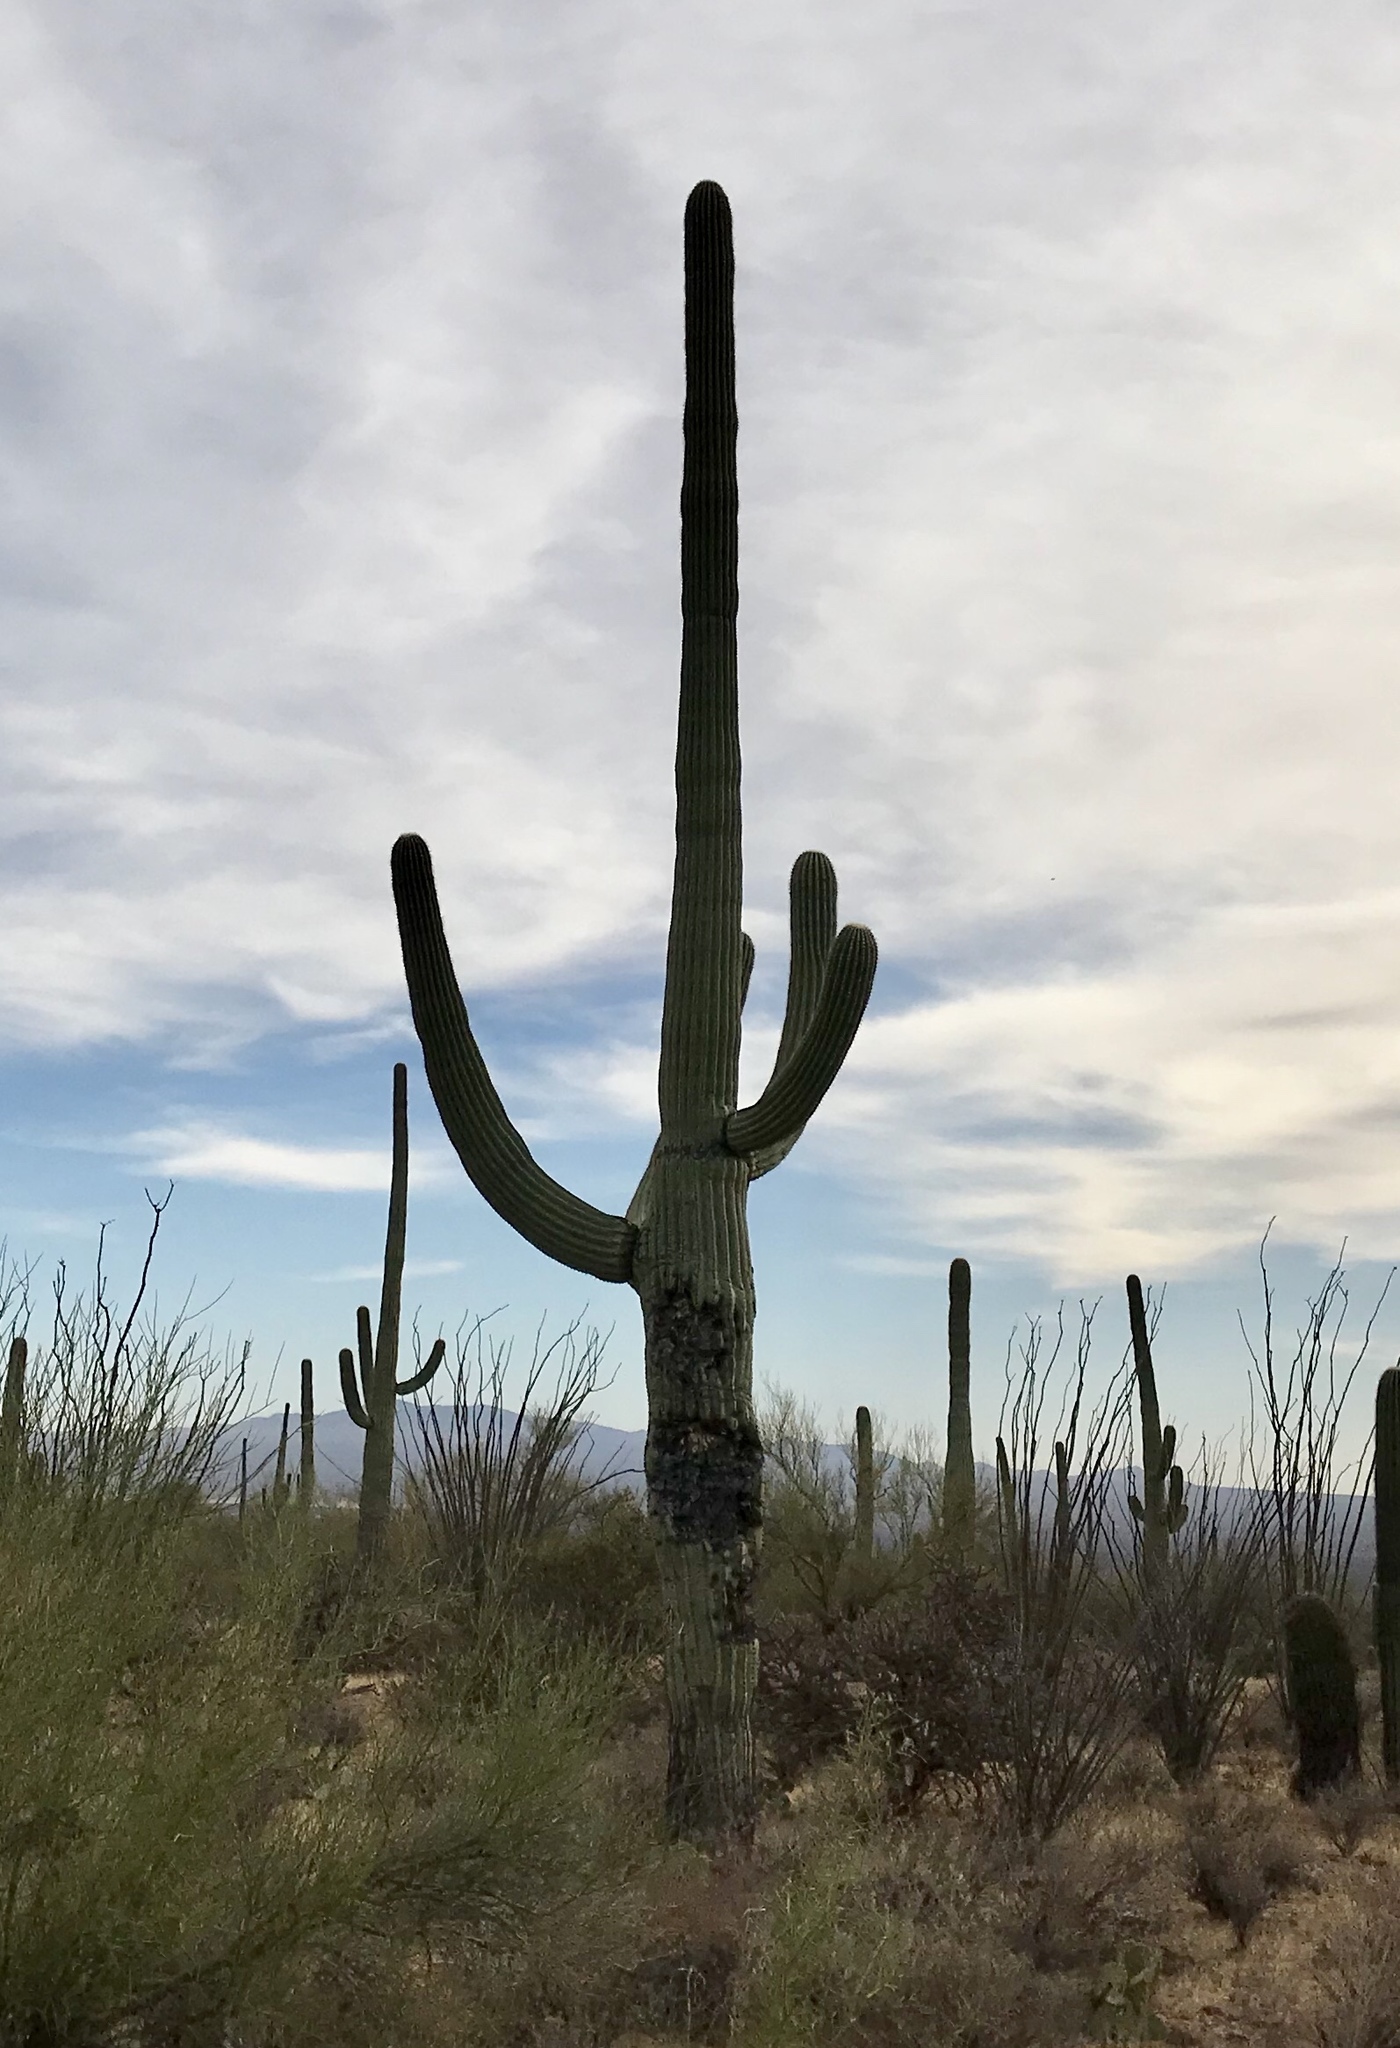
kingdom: Plantae
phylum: Tracheophyta
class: Magnoliopsida
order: Caryophyllales
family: Cactaceae
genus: Carnegiea
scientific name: Carnegiea gigantea
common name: Saguaro
